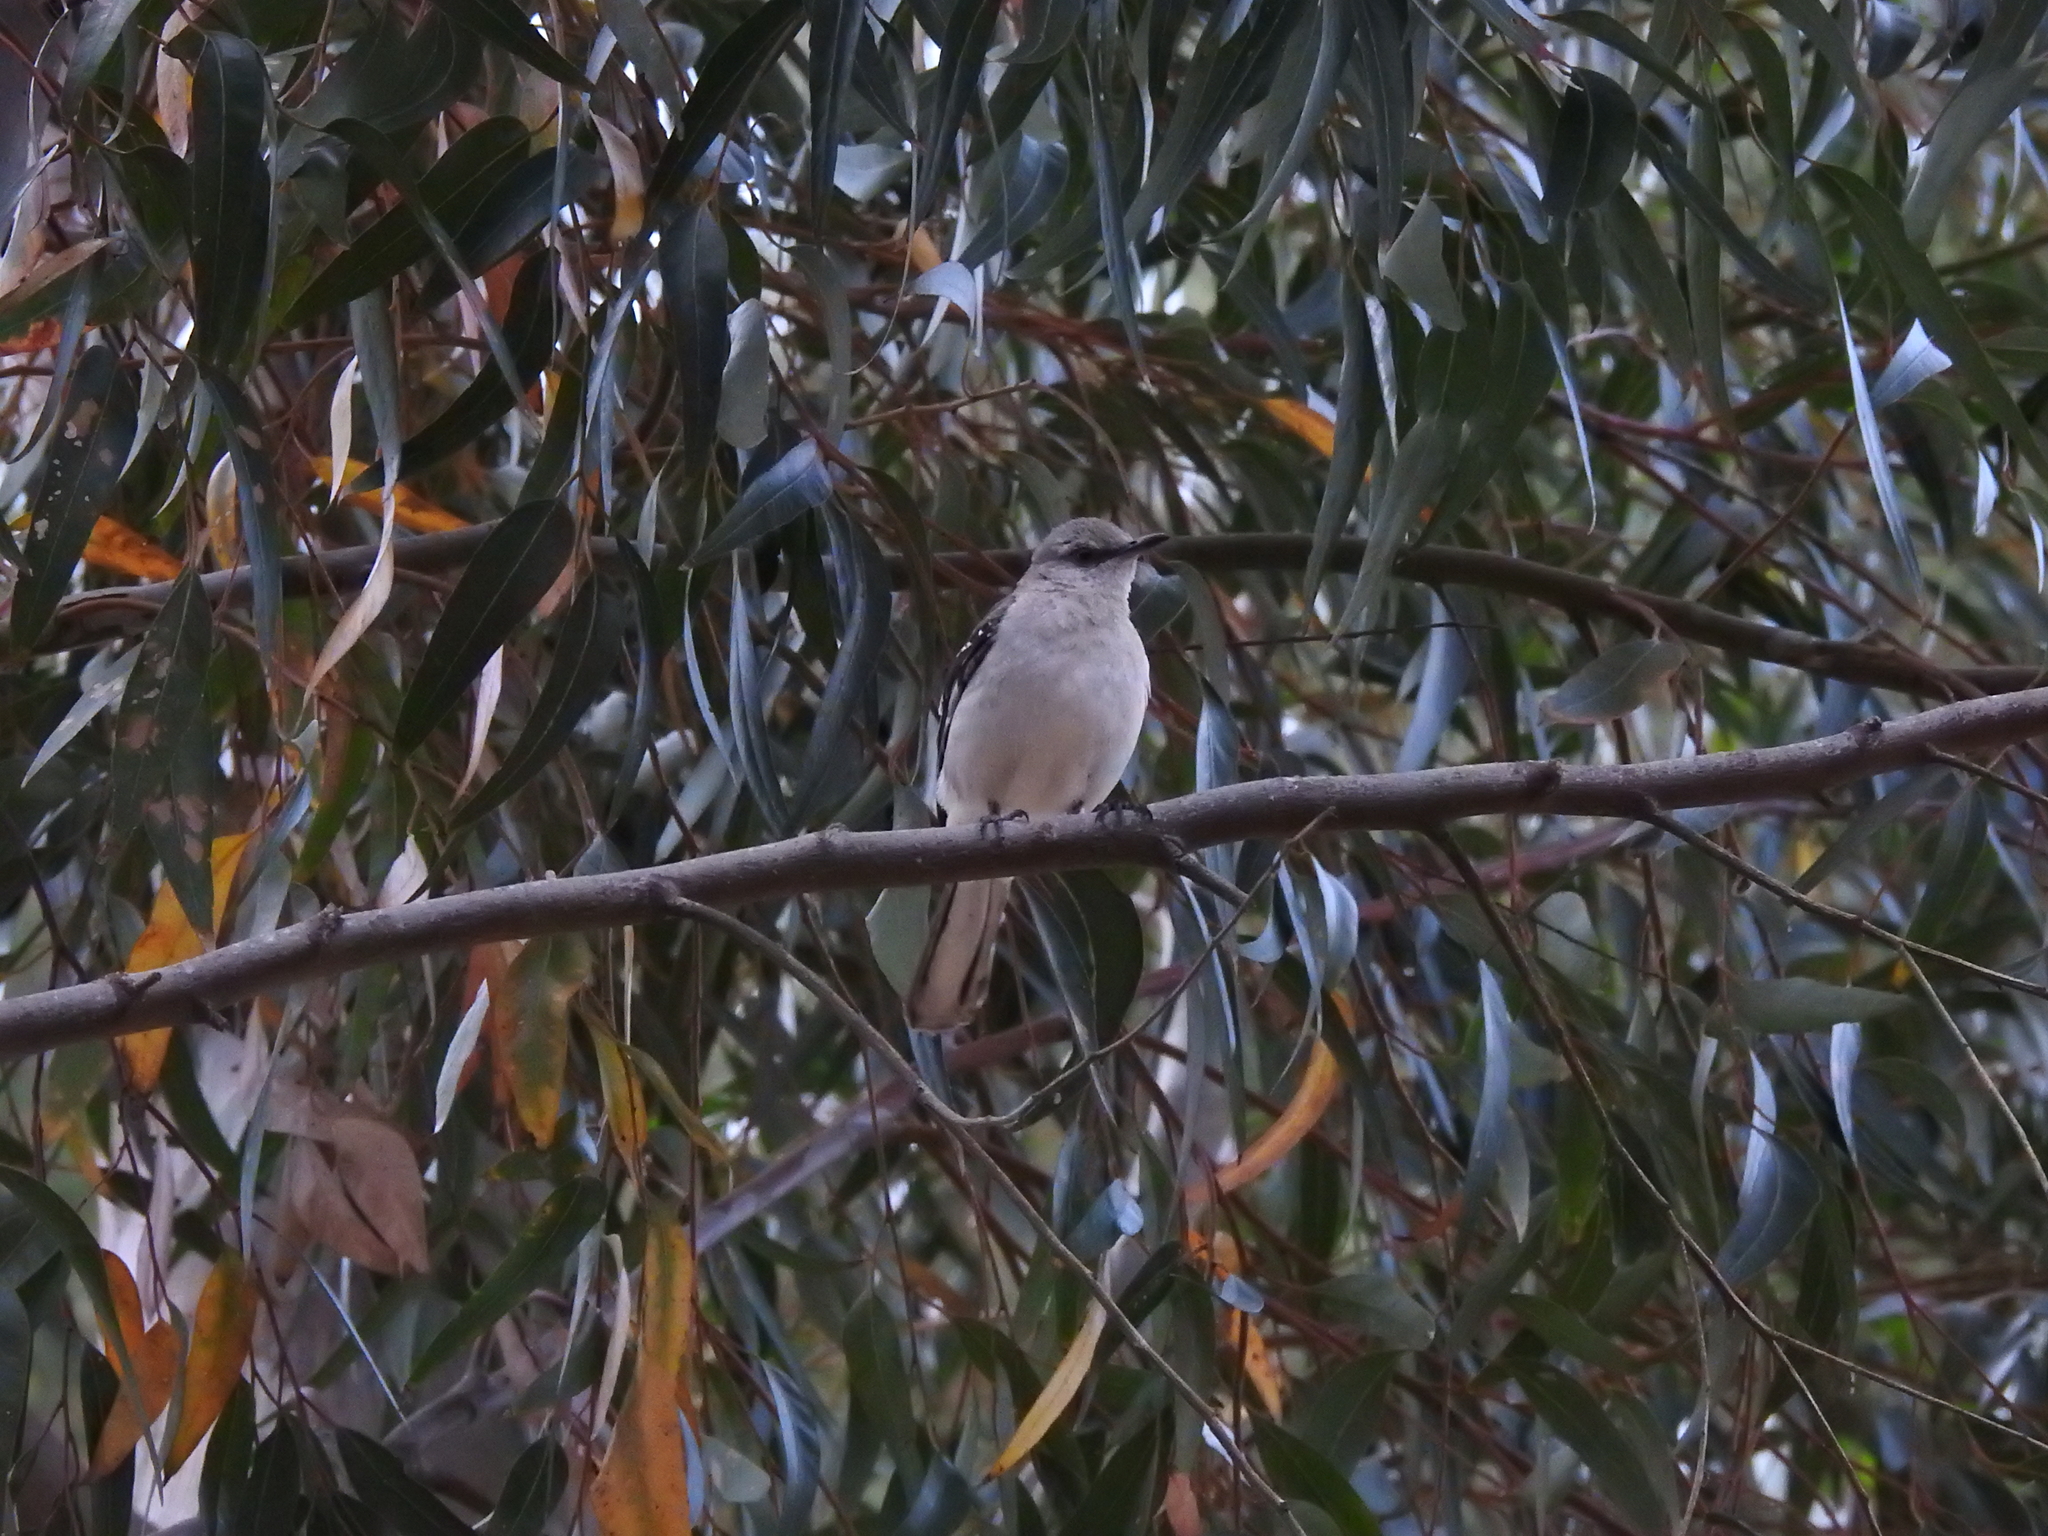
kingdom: Animalia
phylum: Chordata
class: Aves
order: Passeriformes
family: Mimidae
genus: Mimus
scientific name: Mimus polyglottos
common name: Northern mockingbird
